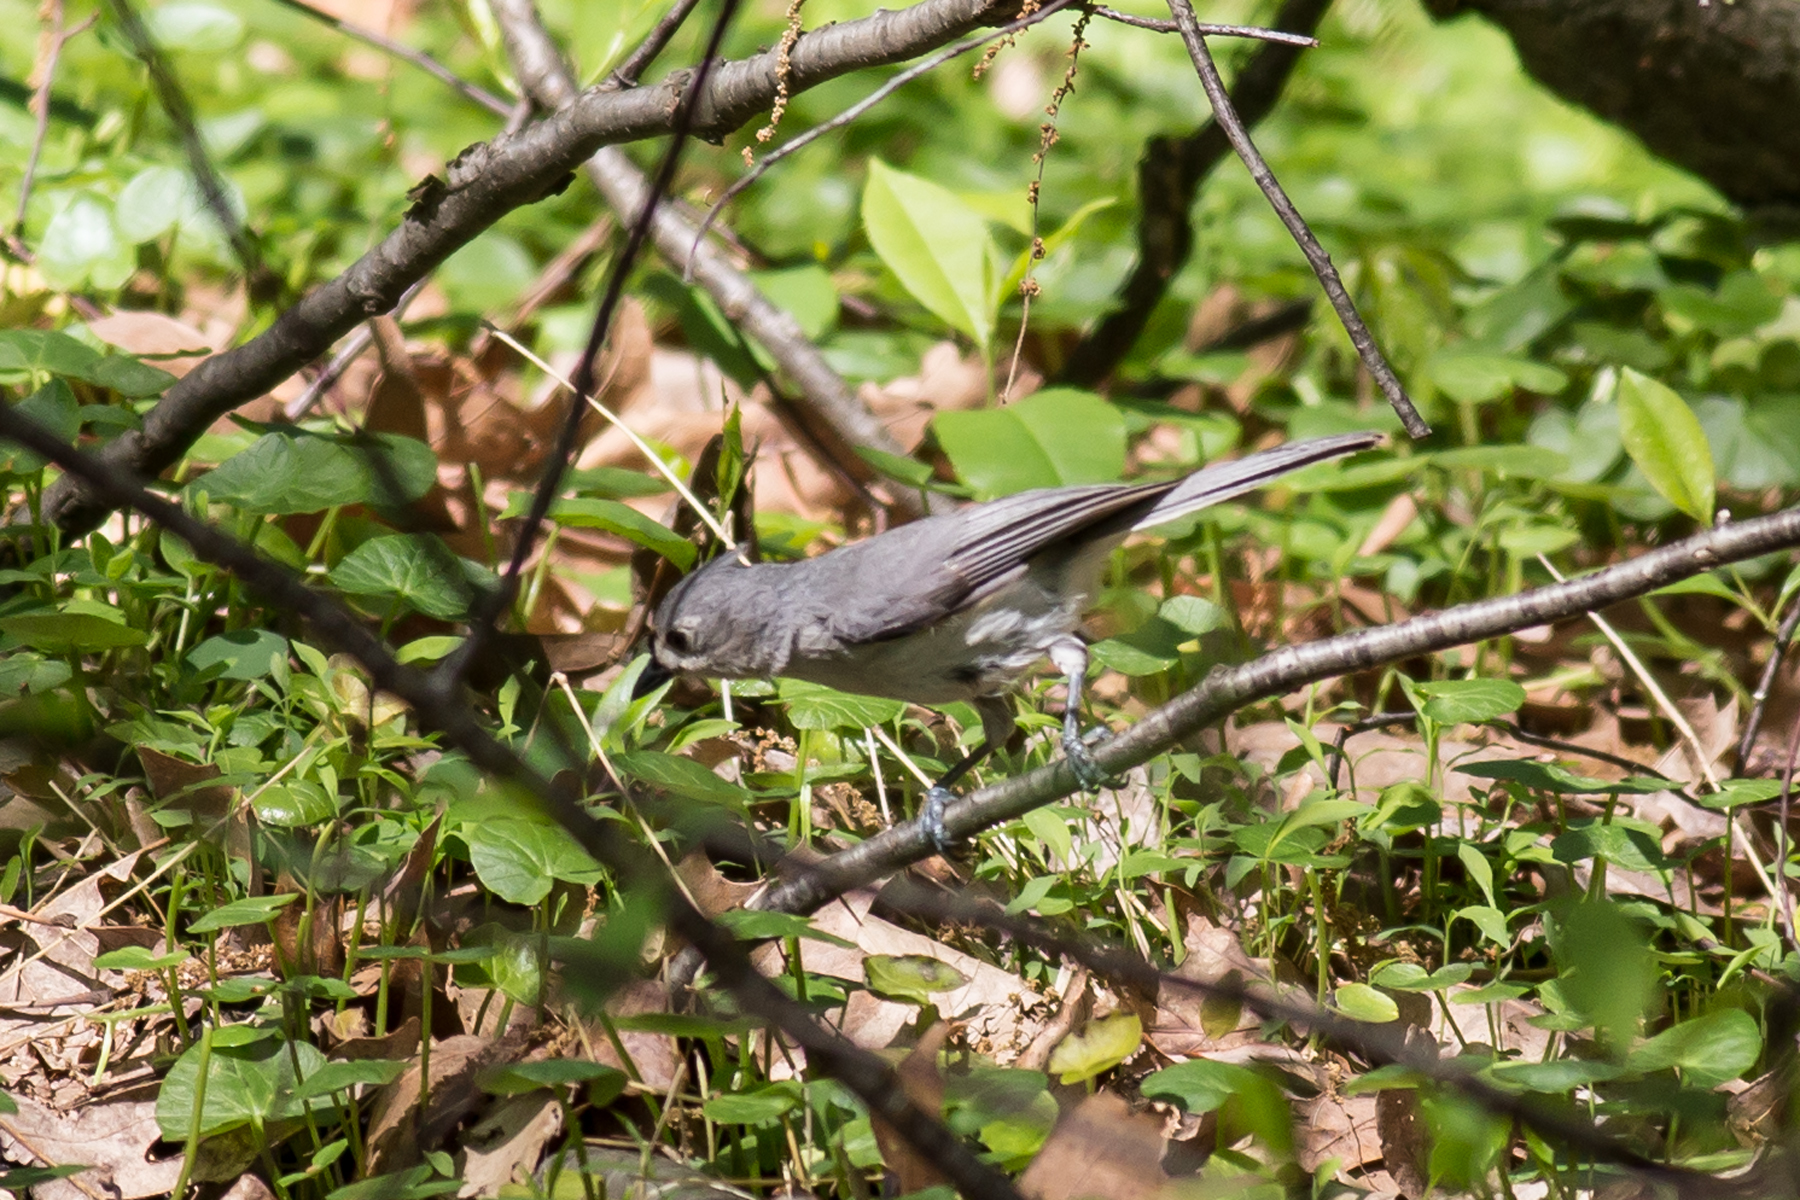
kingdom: Animalia
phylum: Chordata
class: Aves
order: Passeriformes
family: Paridae
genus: Baeolophus
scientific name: Baeolophus bicolor
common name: Tufted titmouse
